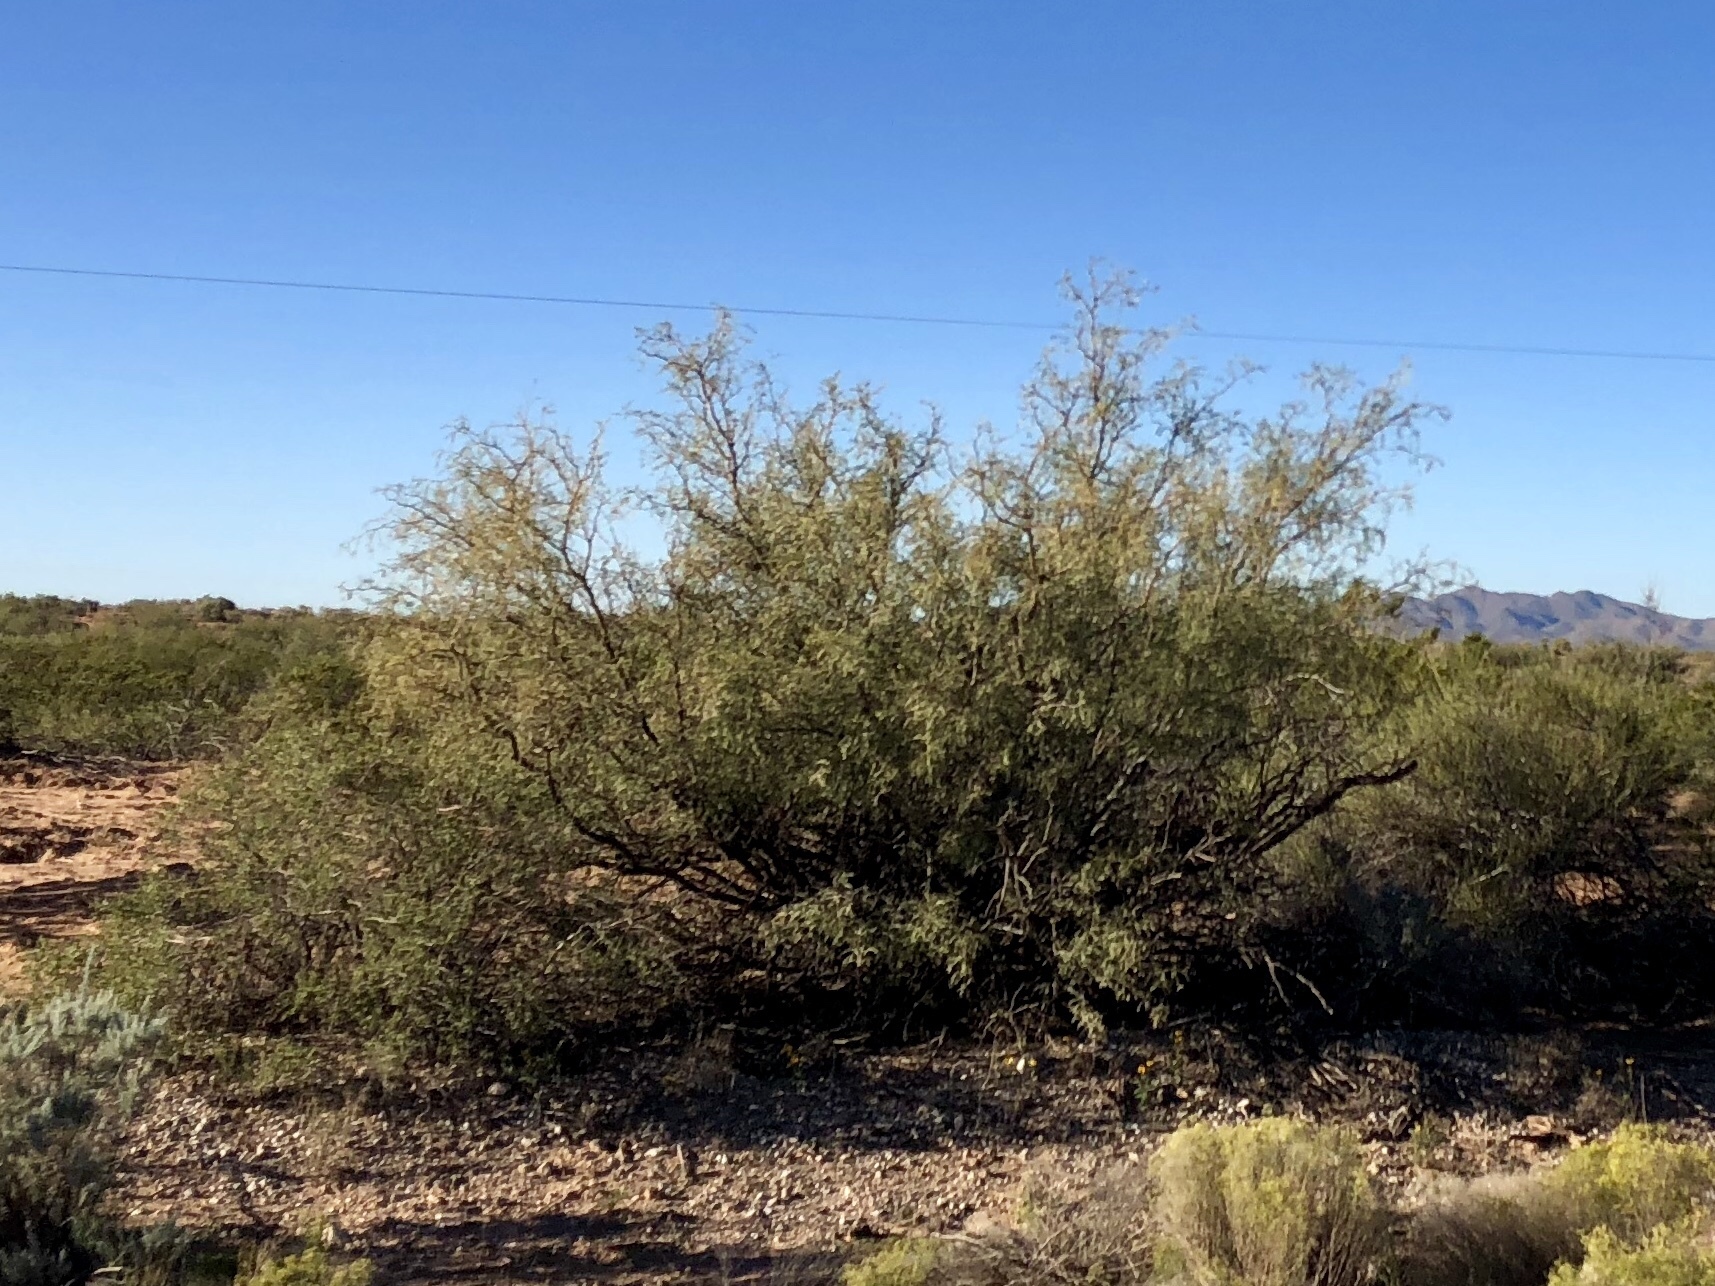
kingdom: Plantae
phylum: Tracheophyta
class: Magnoliopsida
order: Fabales
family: Fabaceae
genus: Prosopis
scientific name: Prosopis glandulosa
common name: Honey mesquite
